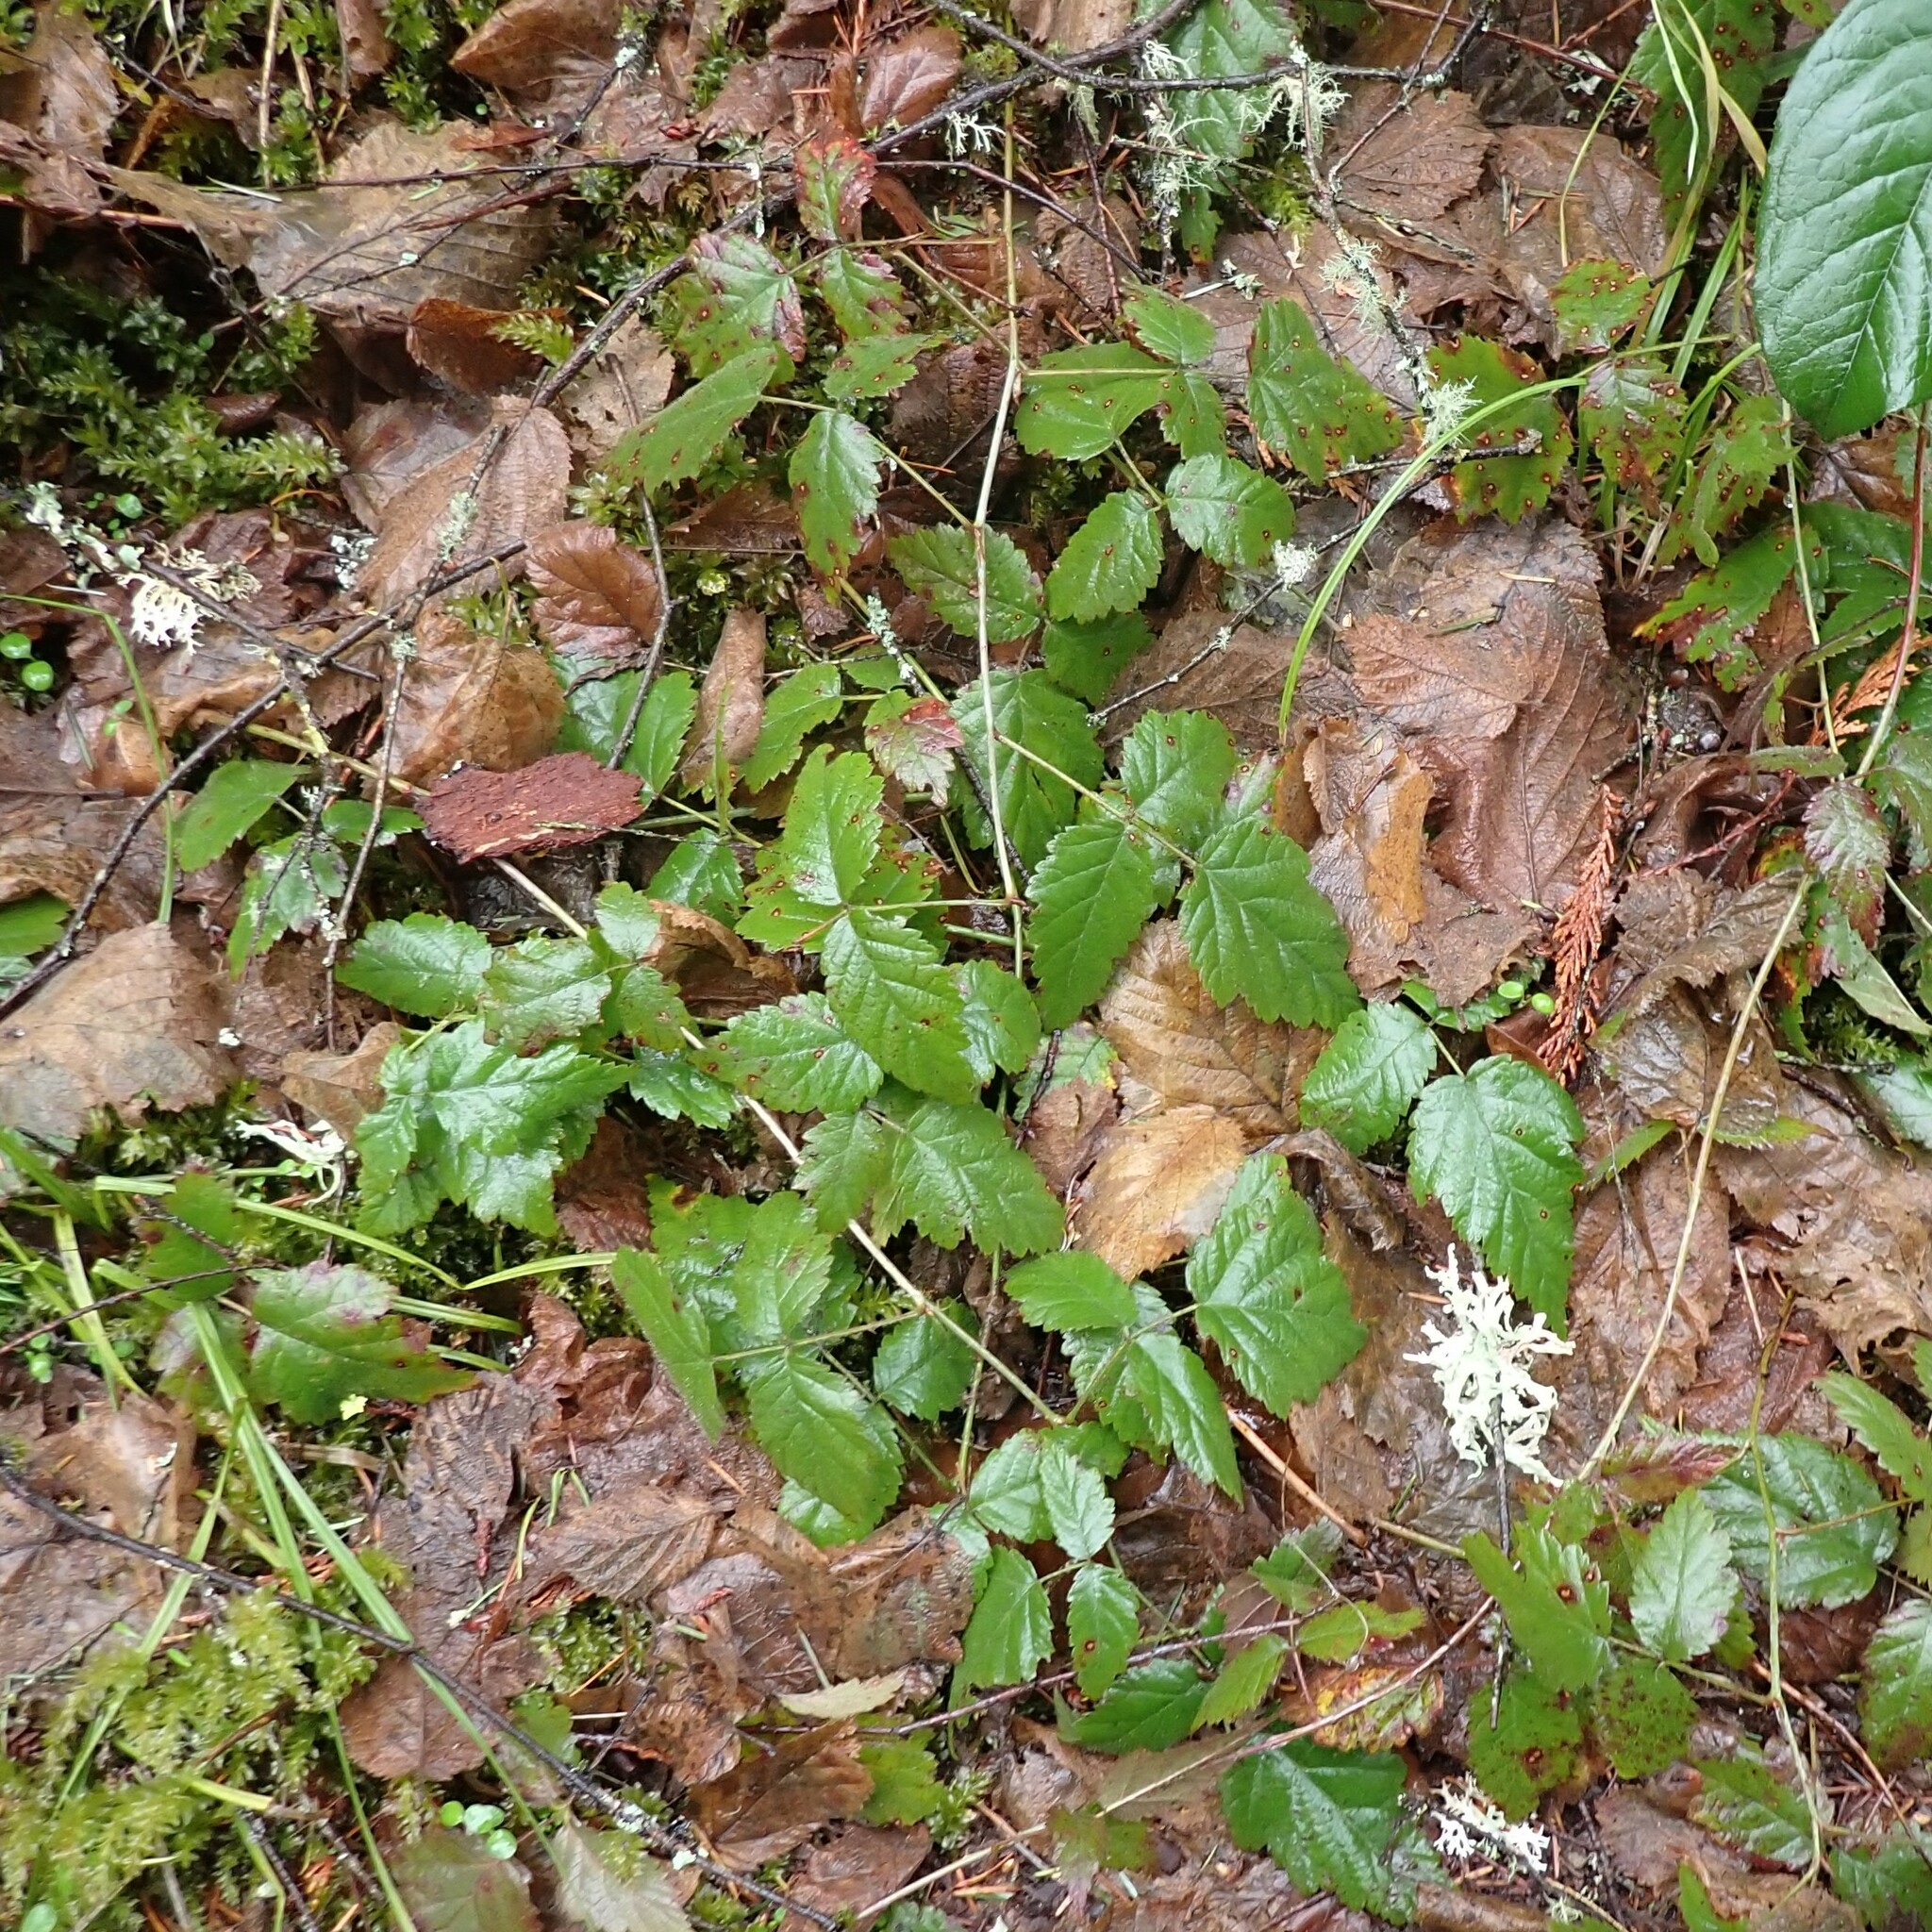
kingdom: Plantae
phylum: Tracheophyta
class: Magnoliopsida
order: Rosales
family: Rosaceae
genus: Rubus
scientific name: Rubus ursinus
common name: Pacific blackberry
